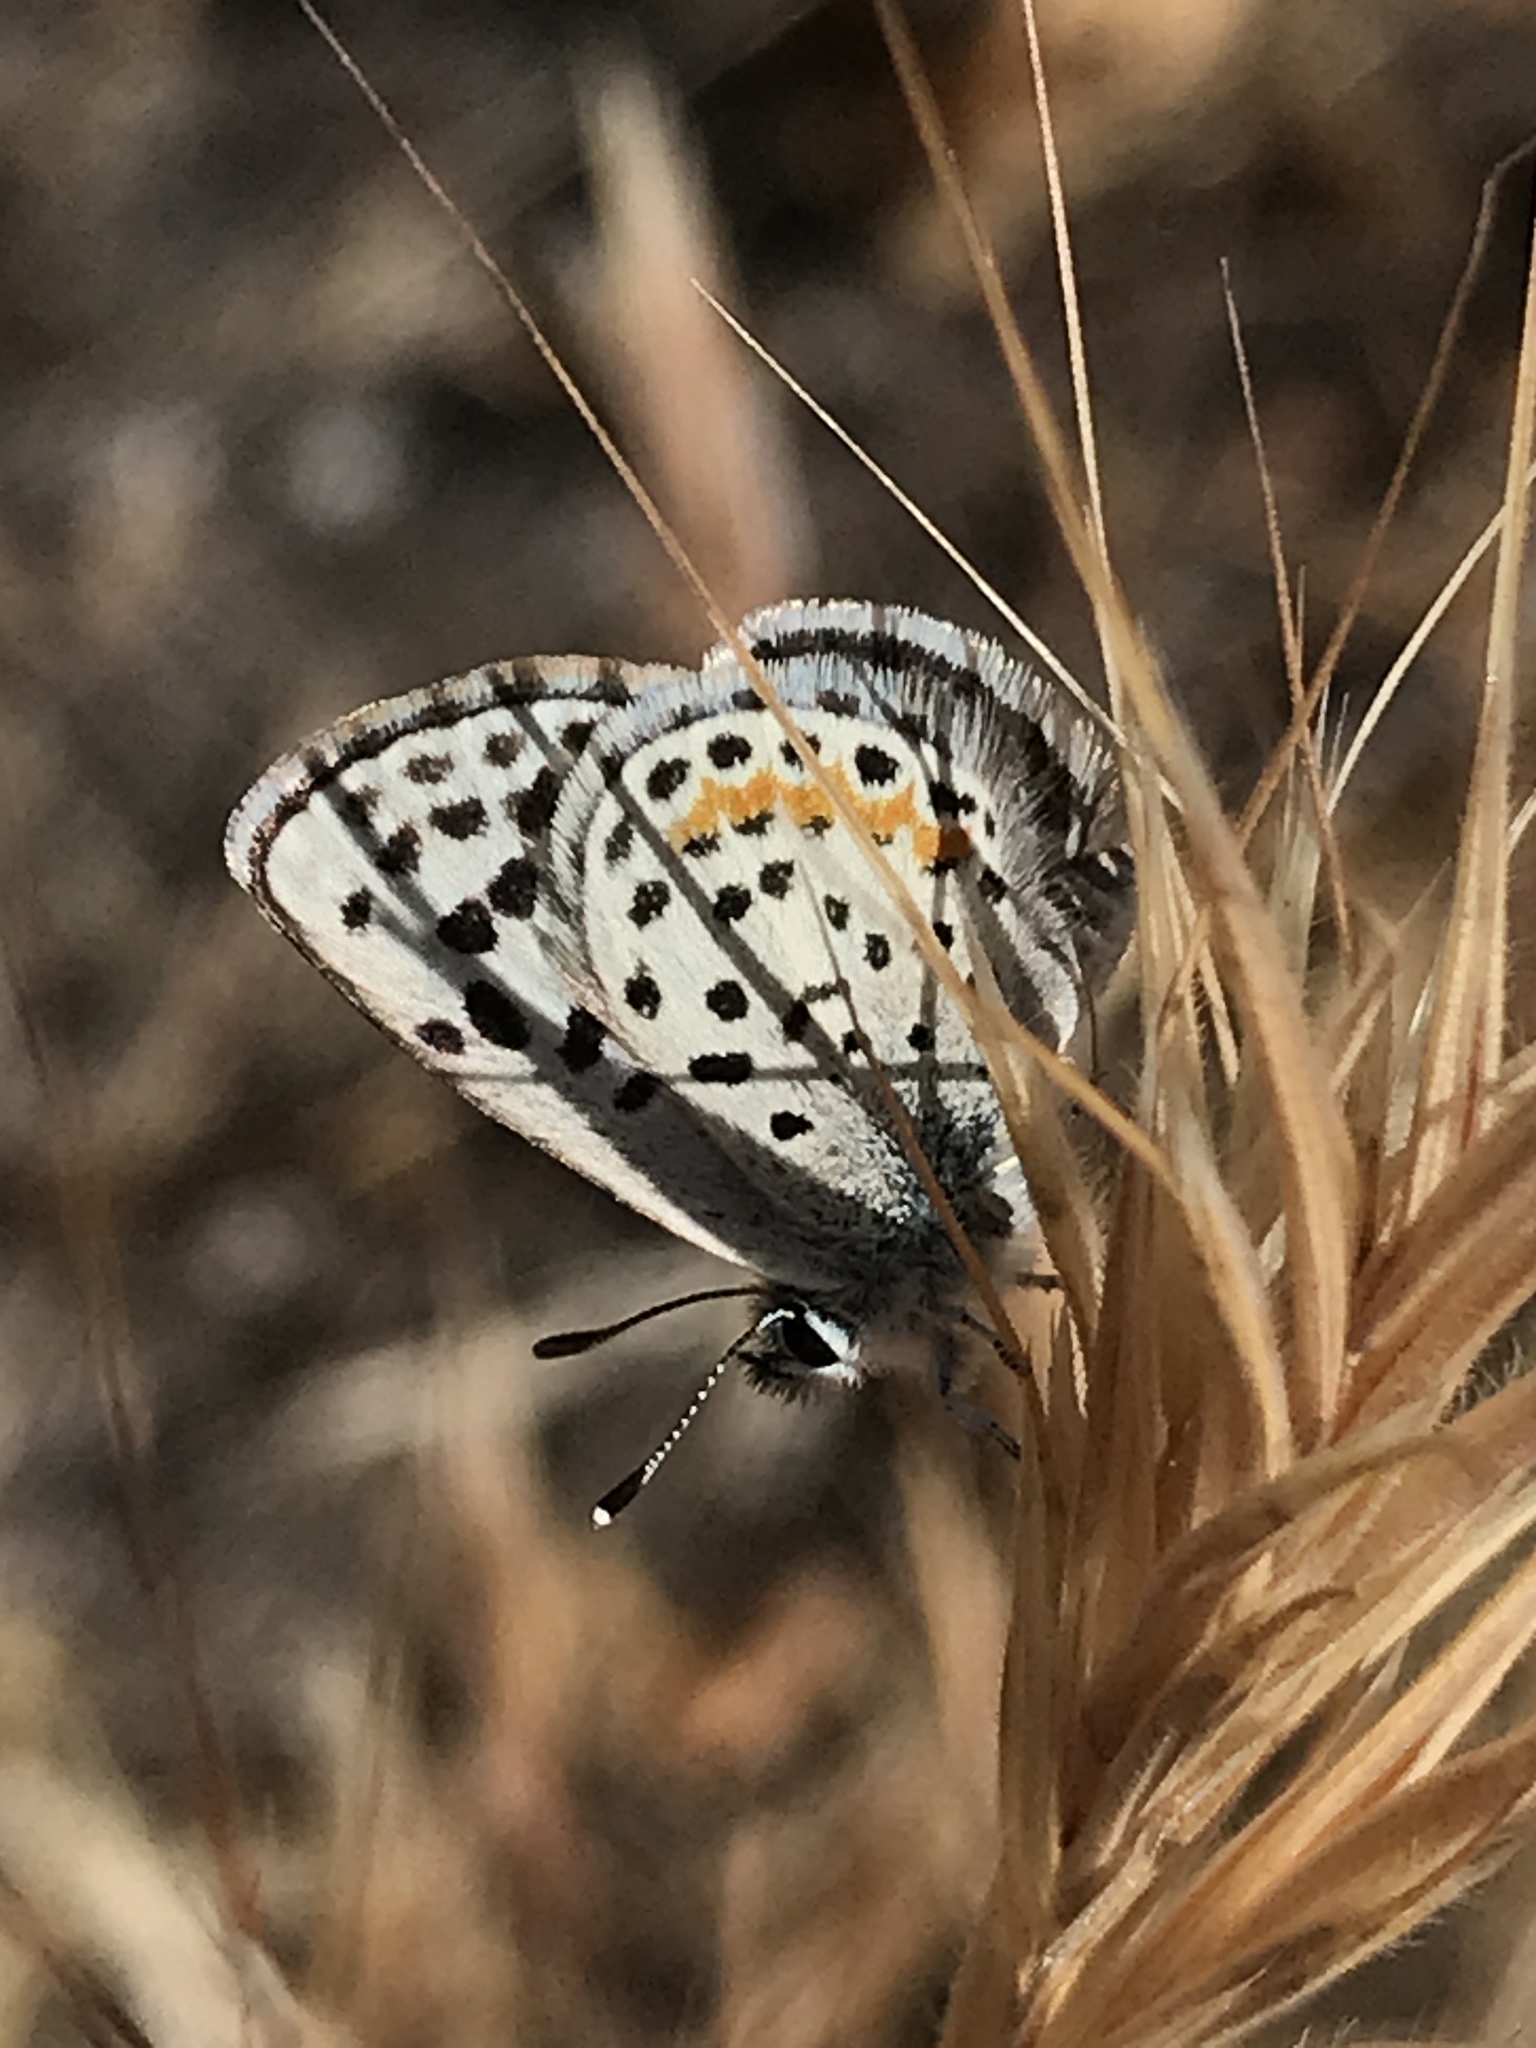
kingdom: Animalia
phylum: Arthropoda
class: Insecta
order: Lepidoptera
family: Lycaenidae
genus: Philotes
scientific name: Philotes bernardino
